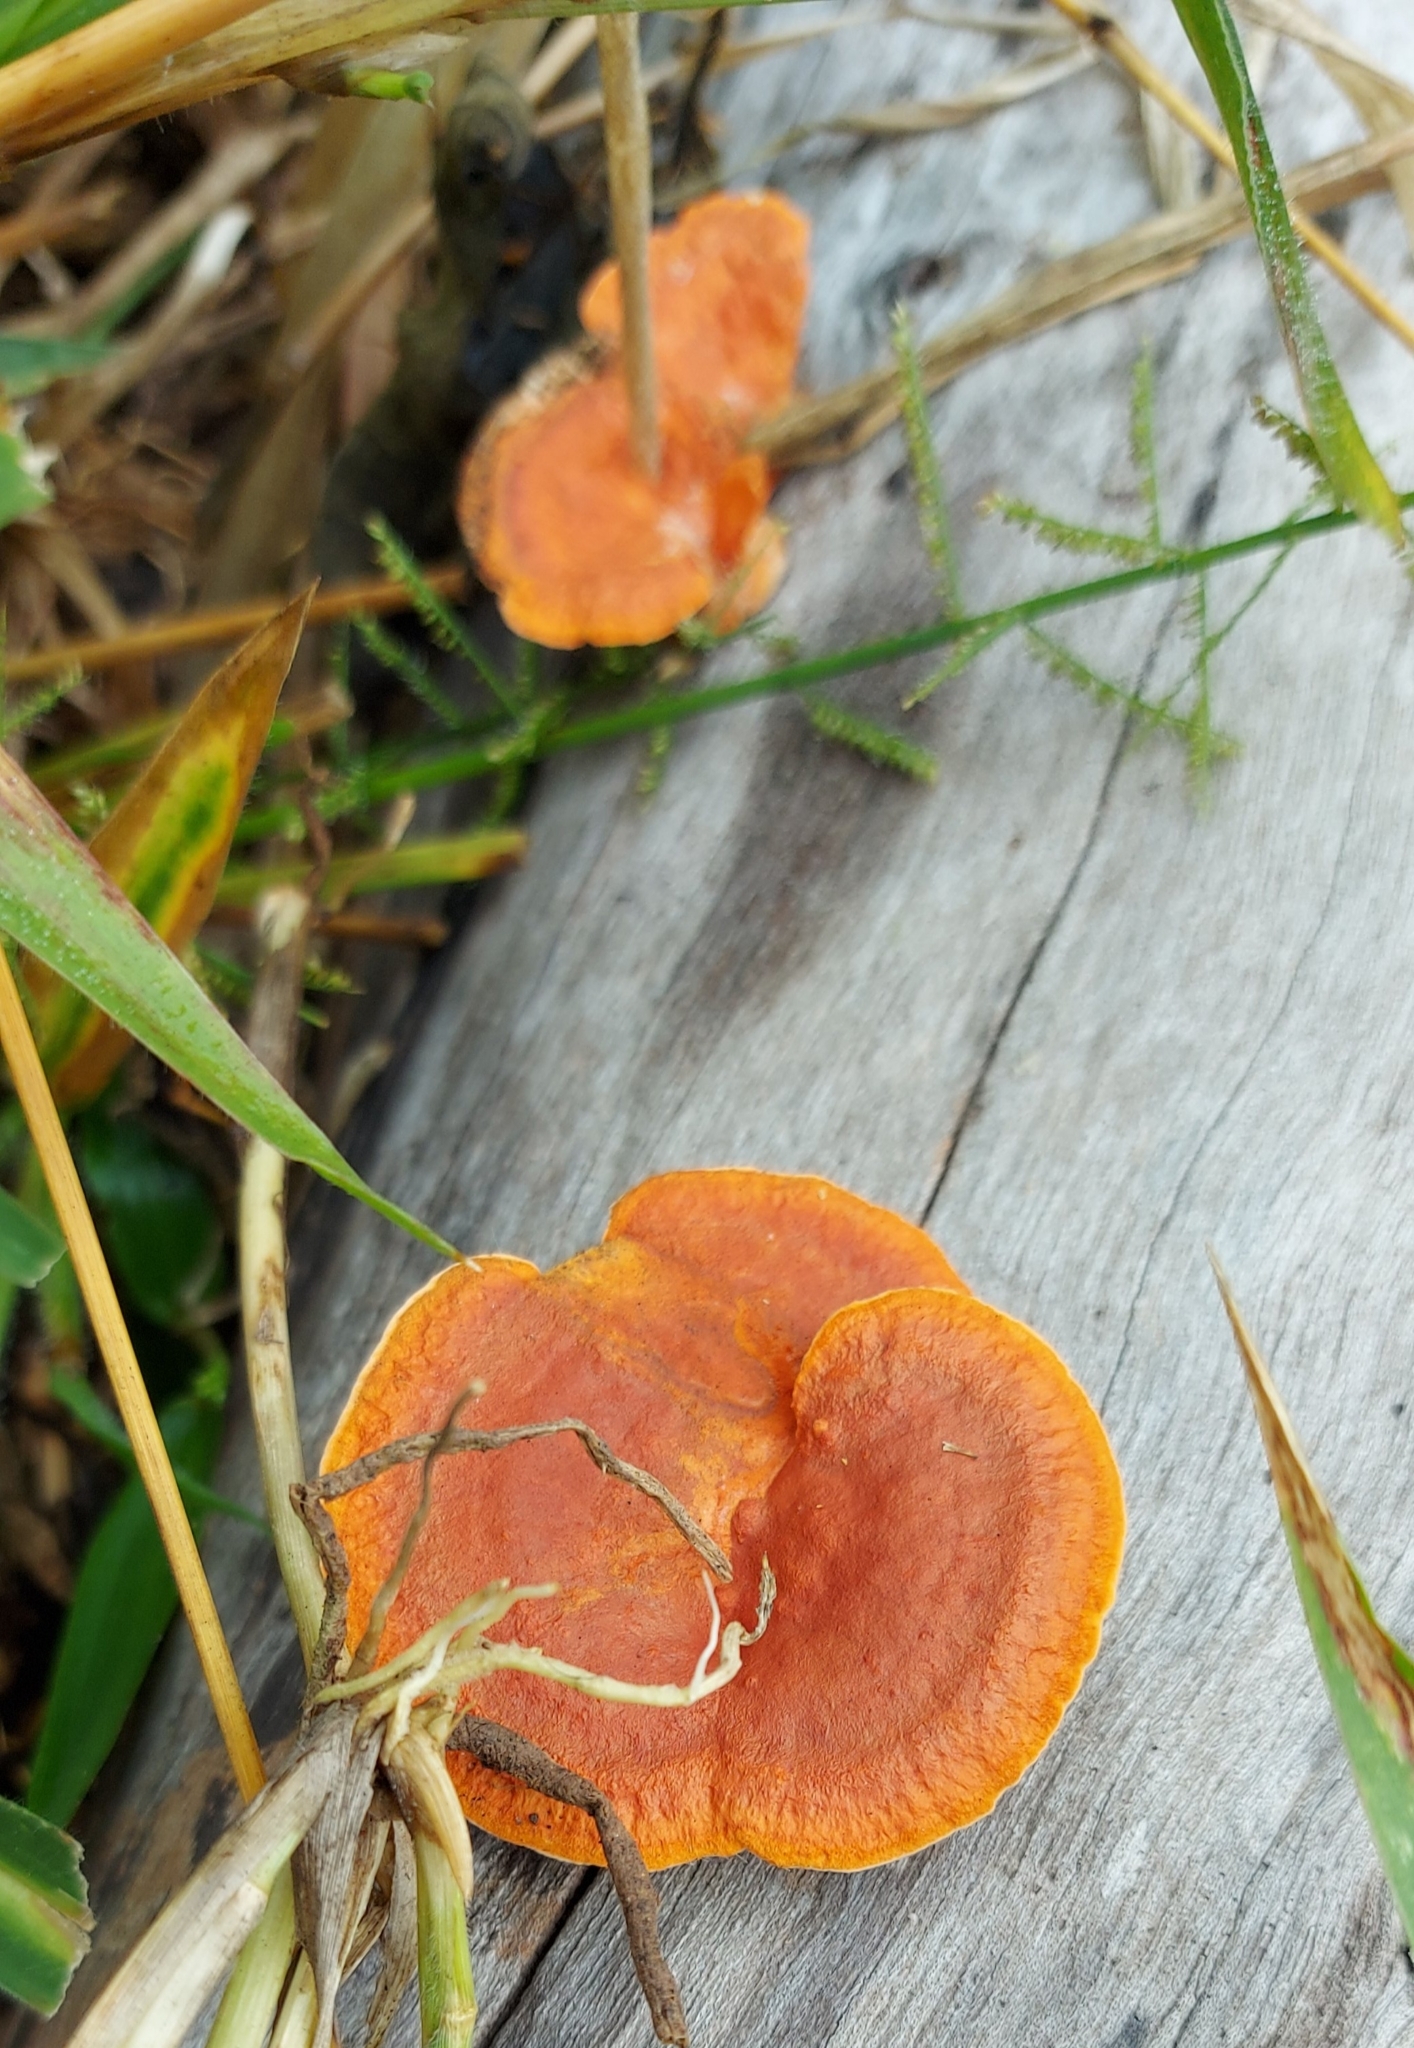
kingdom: Fungi
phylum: Basidiomycota
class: Agaricomycetes
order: Polyporales
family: Polyporaceae
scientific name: Polyporaceae
